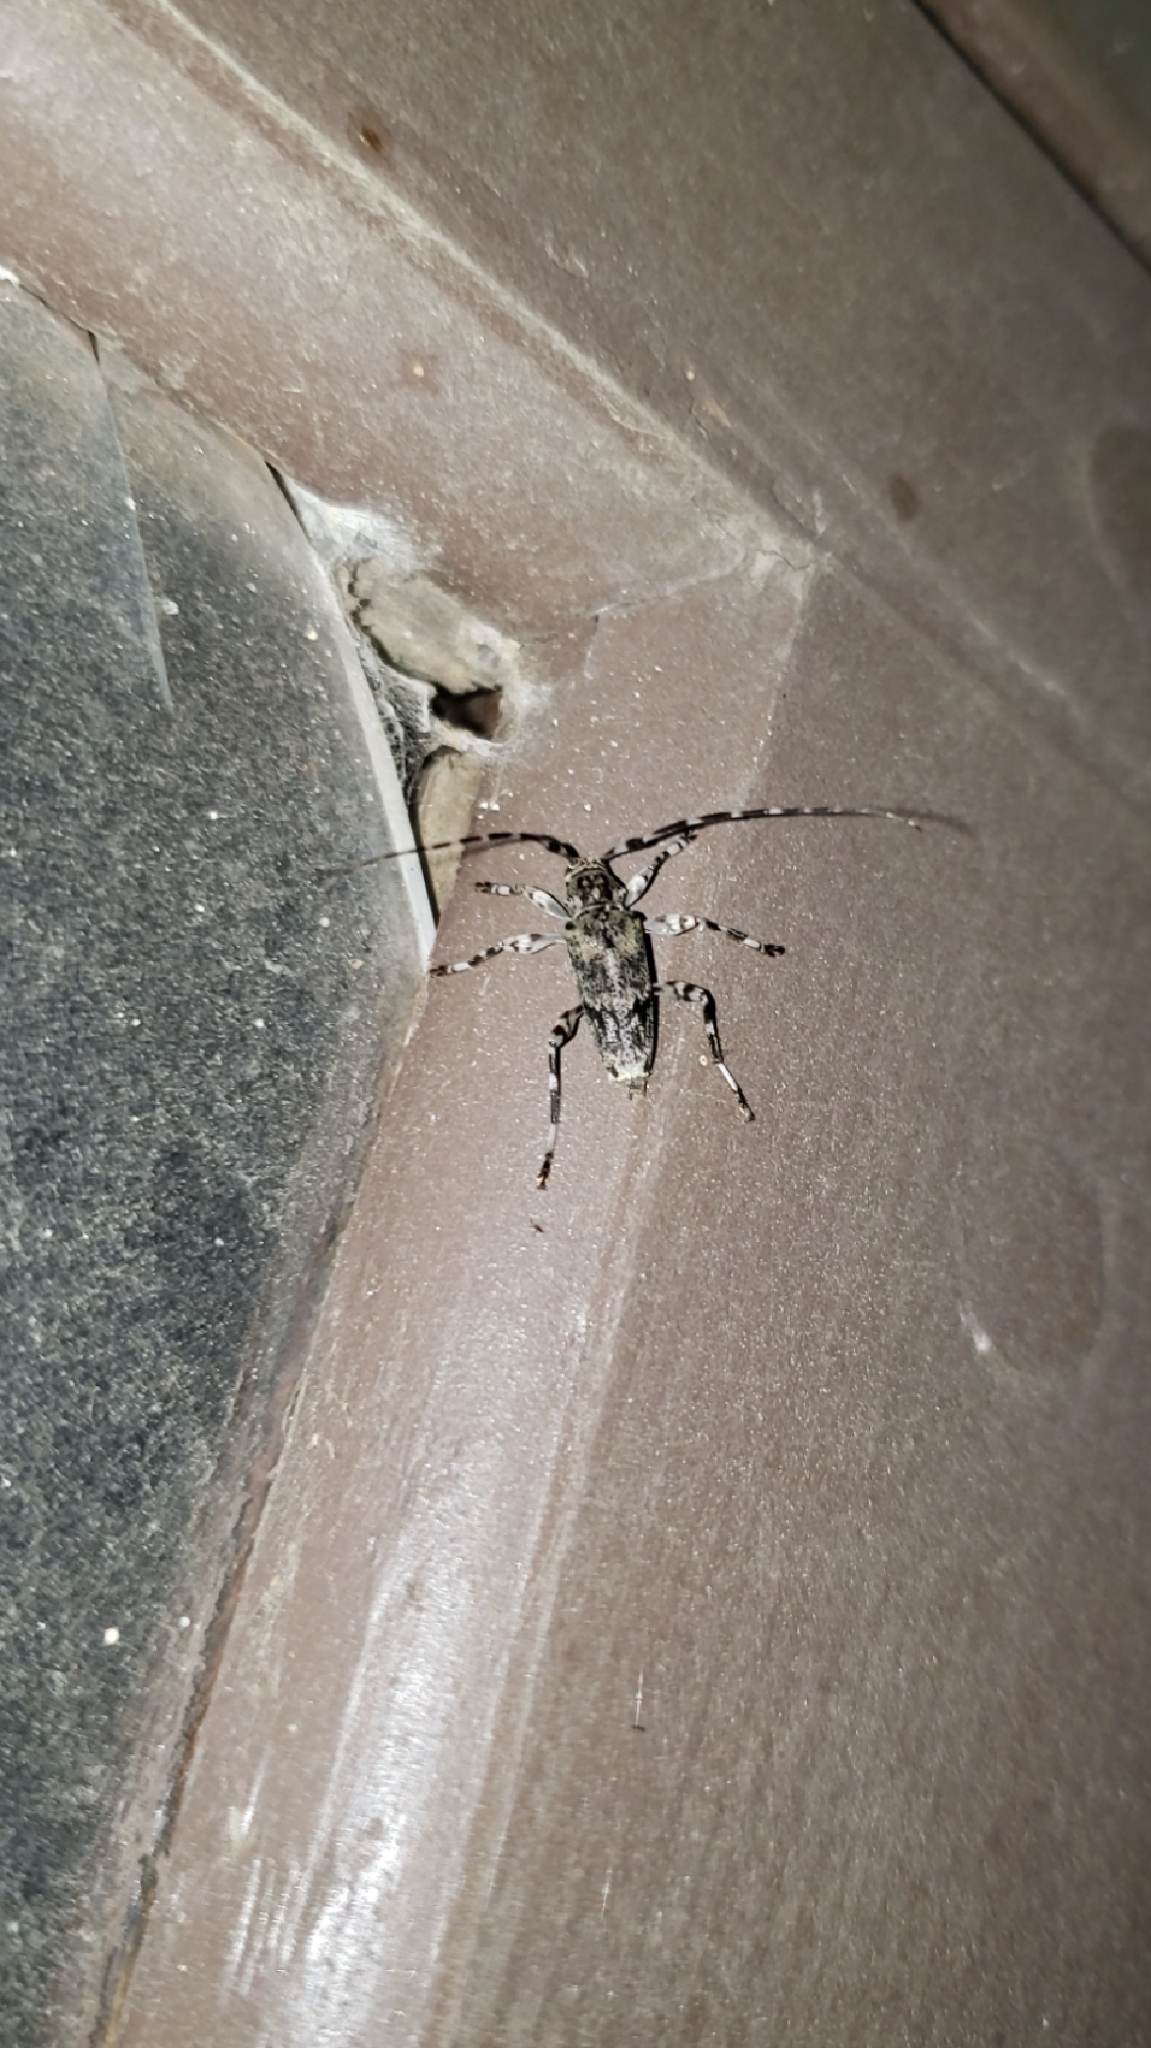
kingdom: Animalia
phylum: Arthropoda
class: Insecta
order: Coleoptera
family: Cerambycidae
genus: Graphisurus
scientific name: Graphisurus fasciatus
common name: Banded graphisurus
